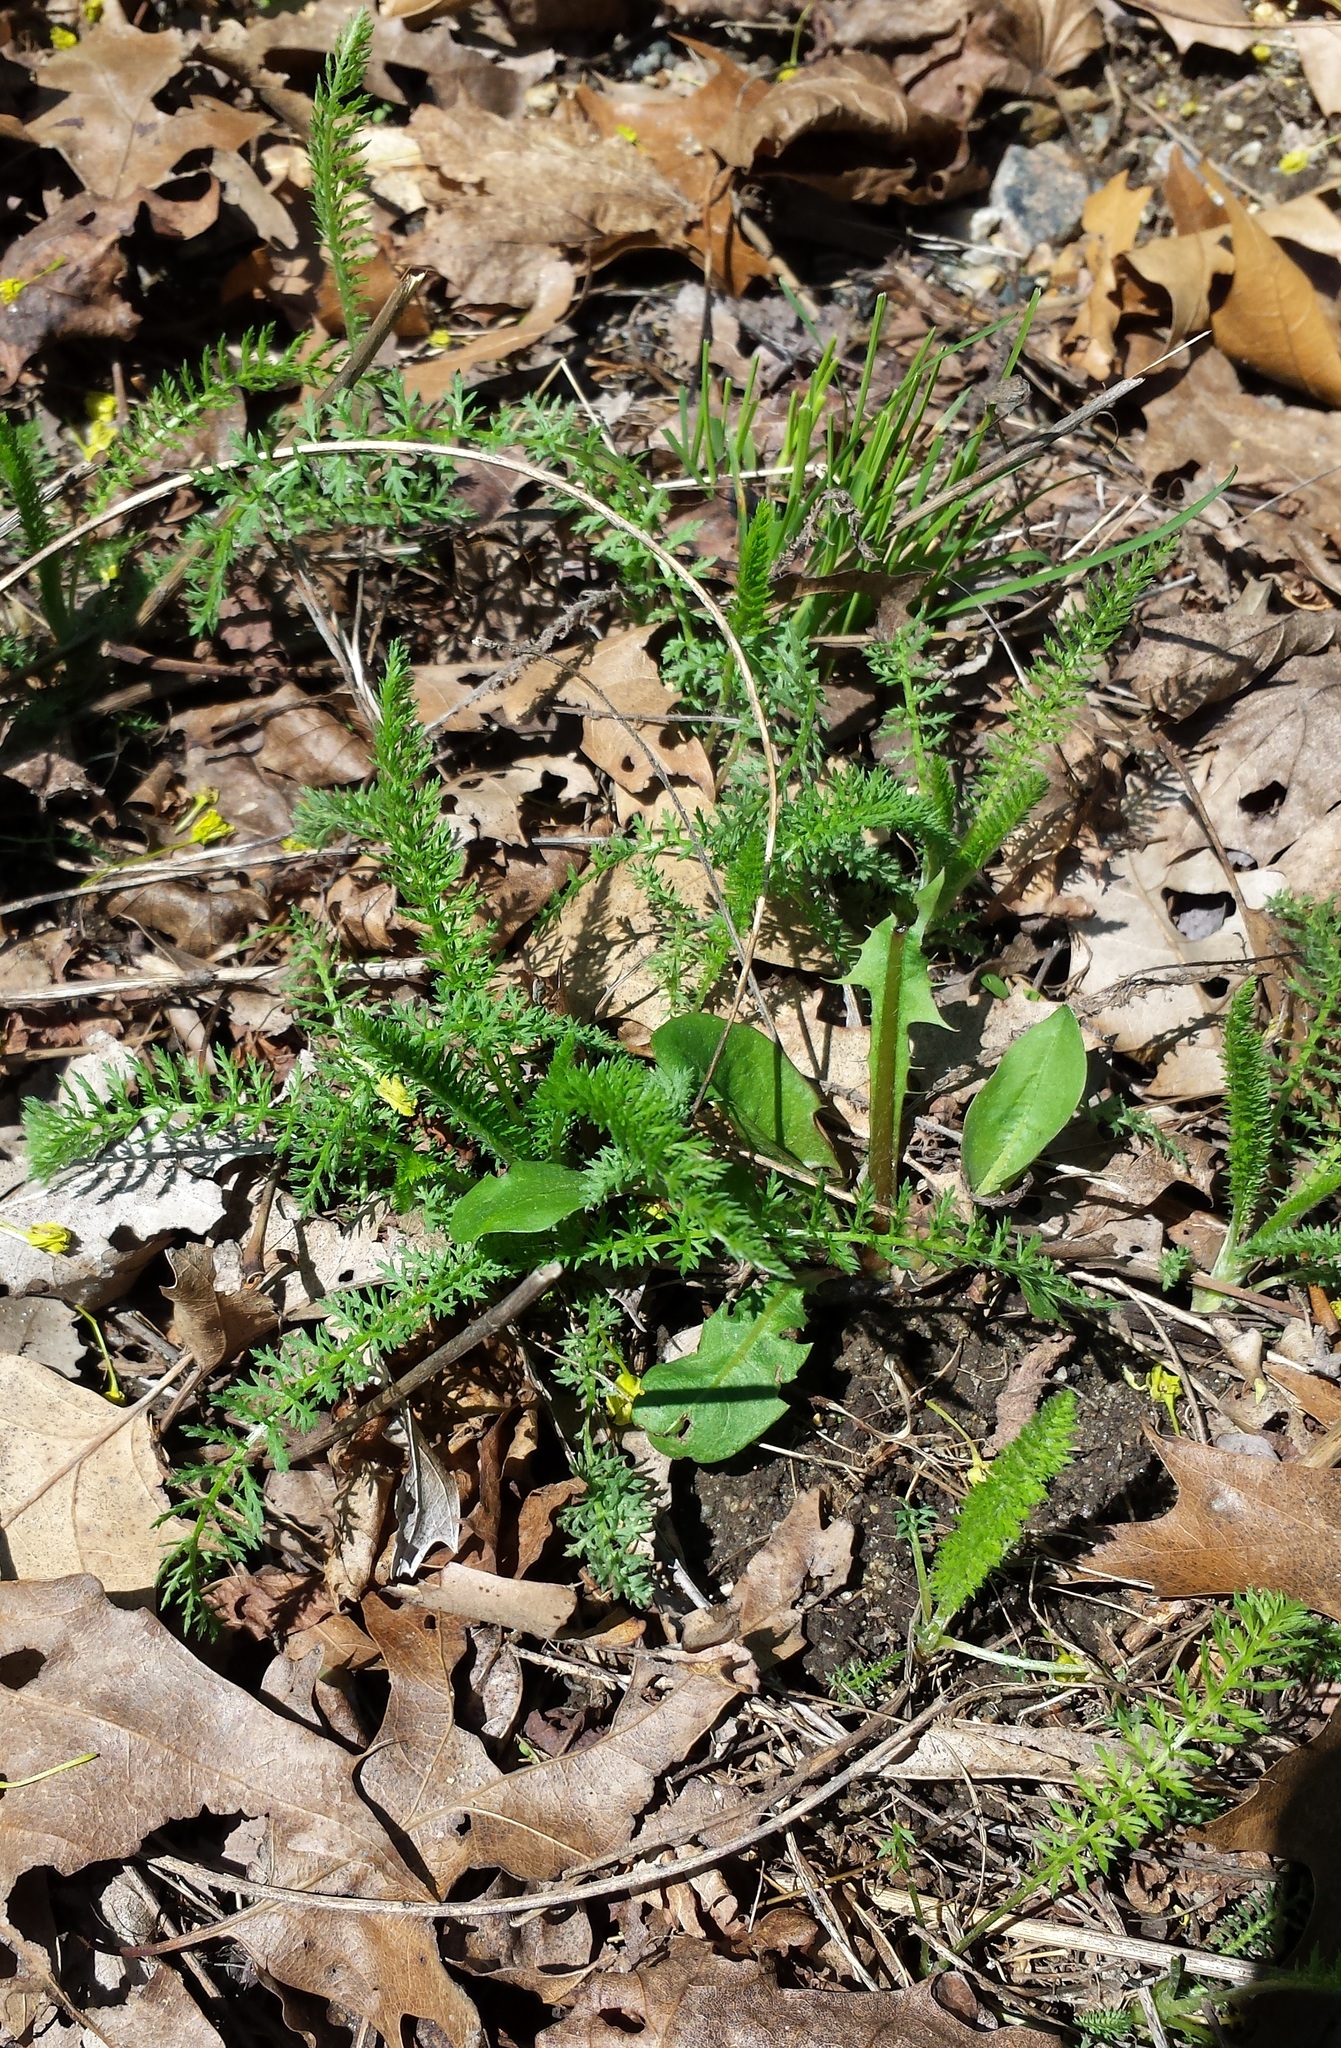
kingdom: Plantae
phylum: Tracheophyta
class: Magnoliopsida
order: Asterales
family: Asteraceae
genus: Achillea
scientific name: Achillea millefolium
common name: Yarrow
